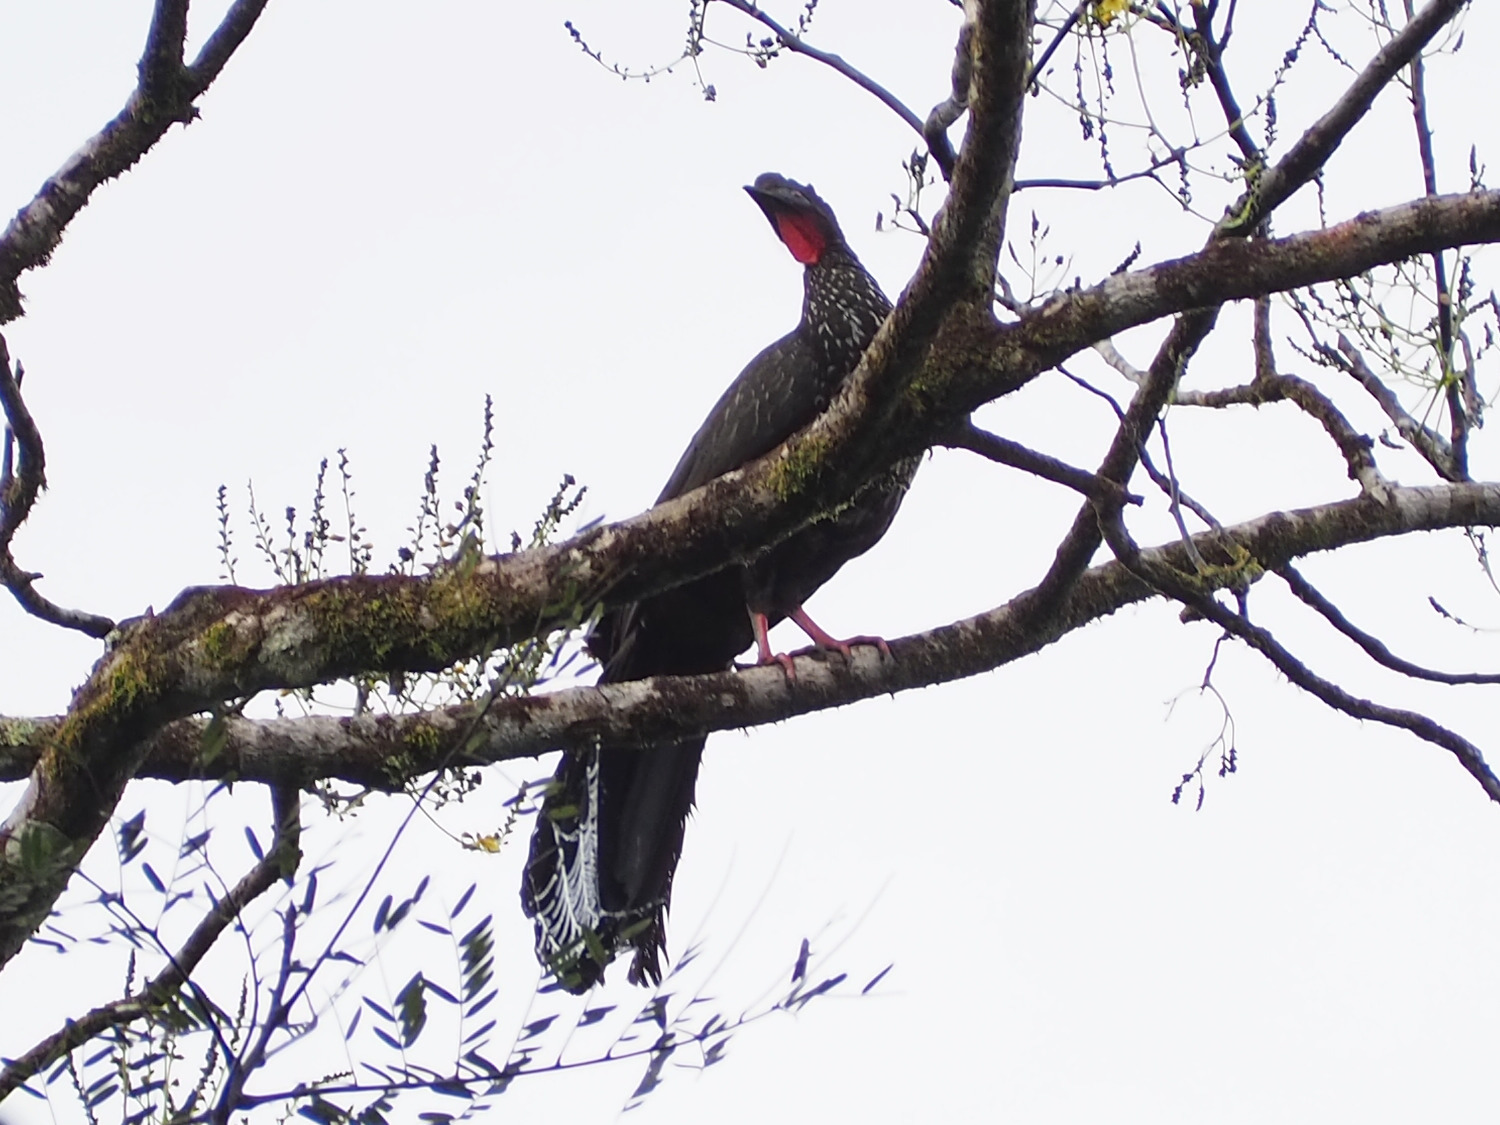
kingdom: Animalia
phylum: Chordata
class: Aves
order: Galliformes
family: Cracidae
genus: Penelope
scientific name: Penelope purpurascens
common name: Crested guan
